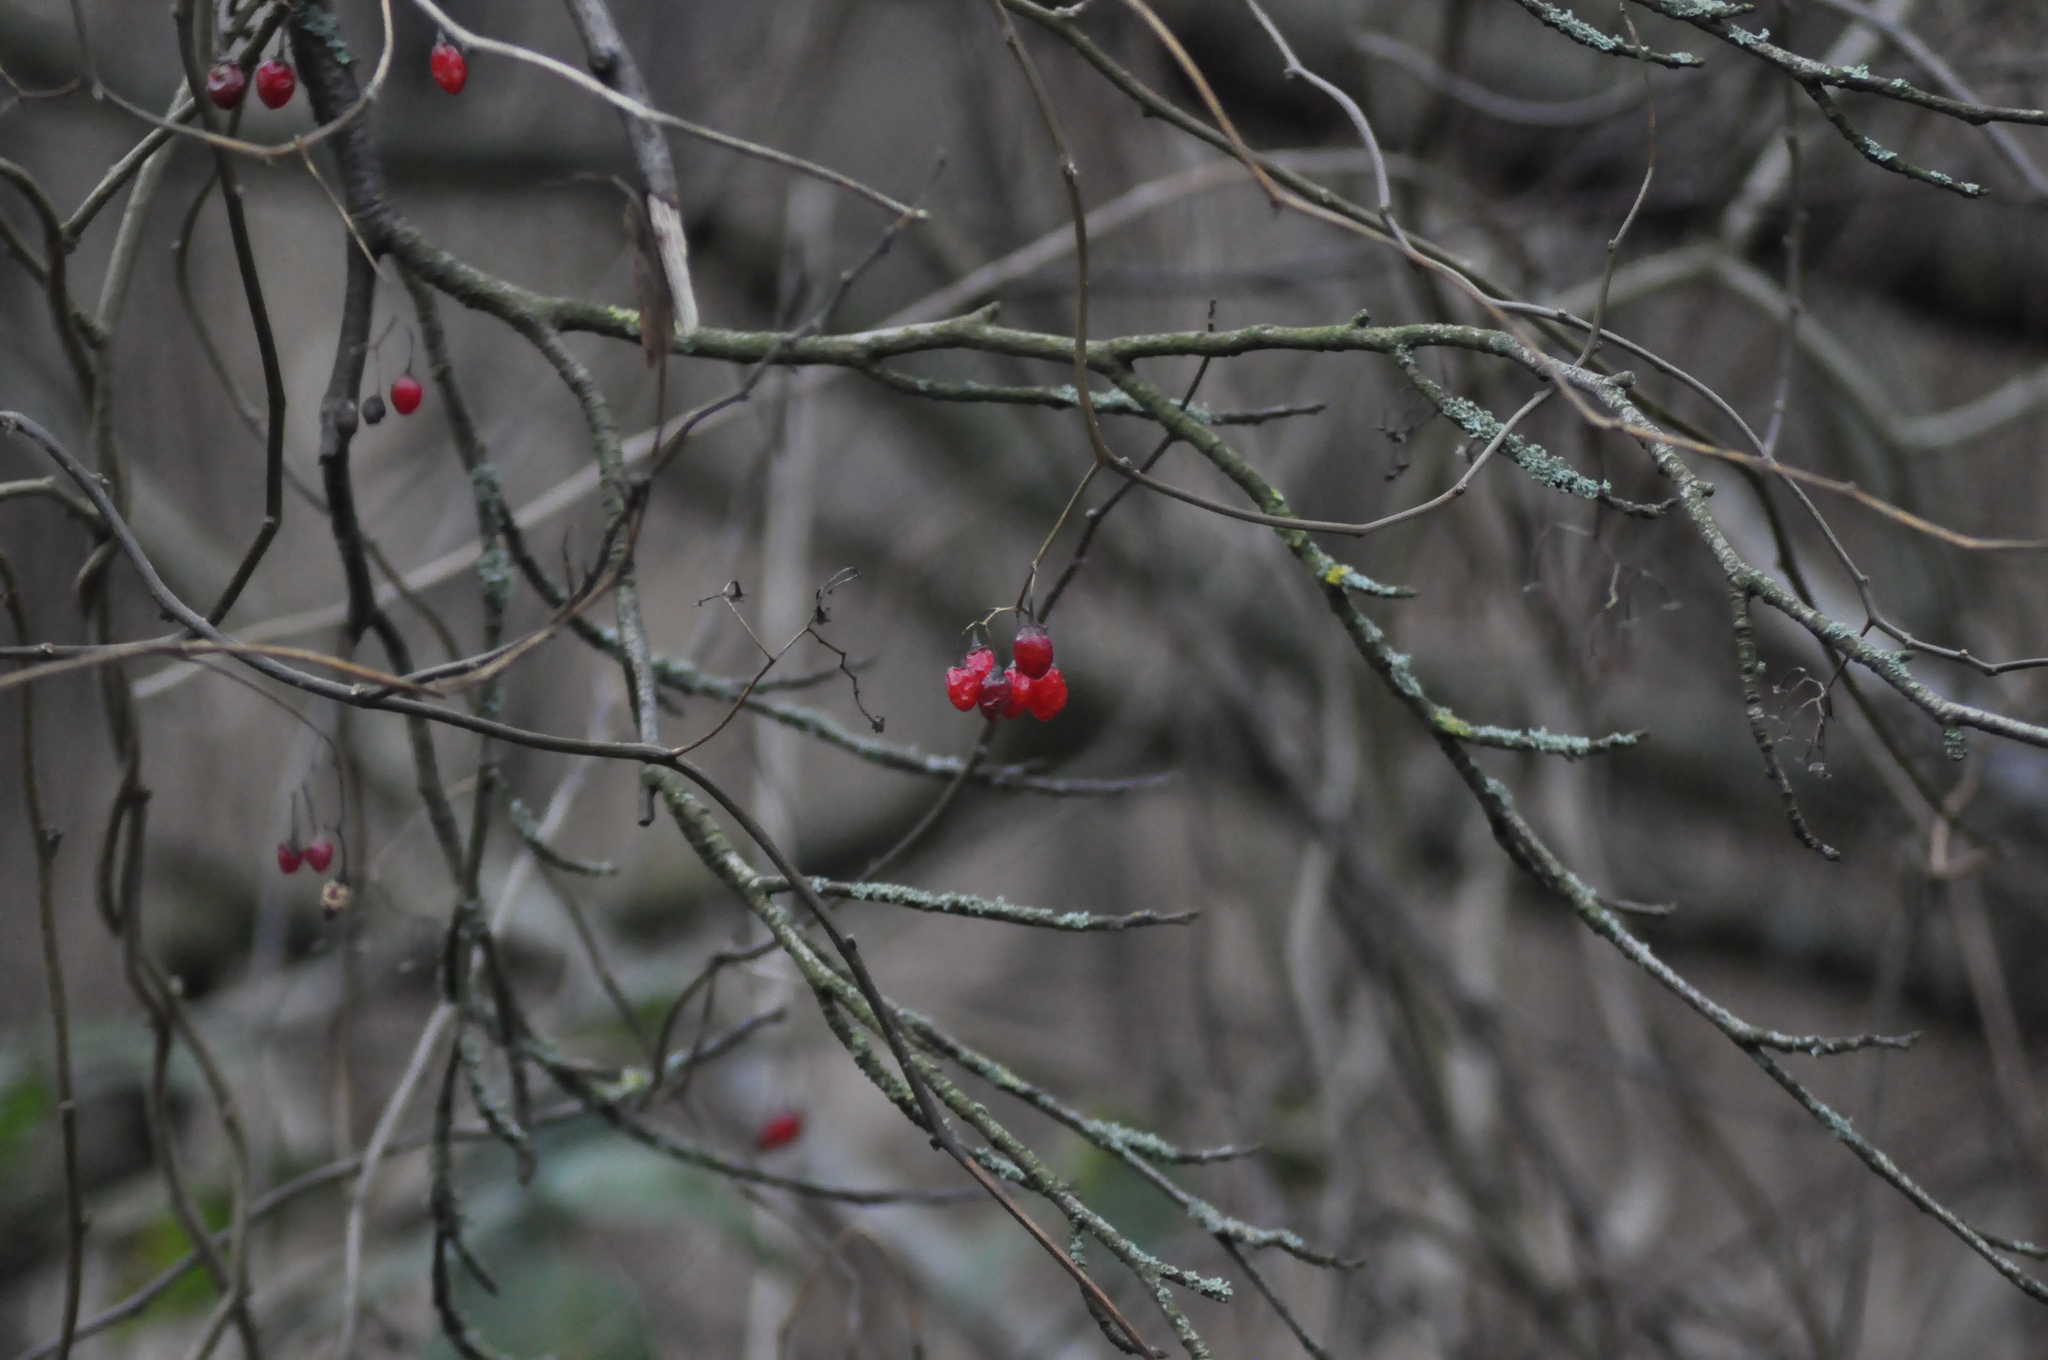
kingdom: Plantae
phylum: Tracheophyta
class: Magnoliopsida
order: Solanales
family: Solanaceae
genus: Solanum
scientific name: Solanum dulcamara
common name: Climbing nightshade
